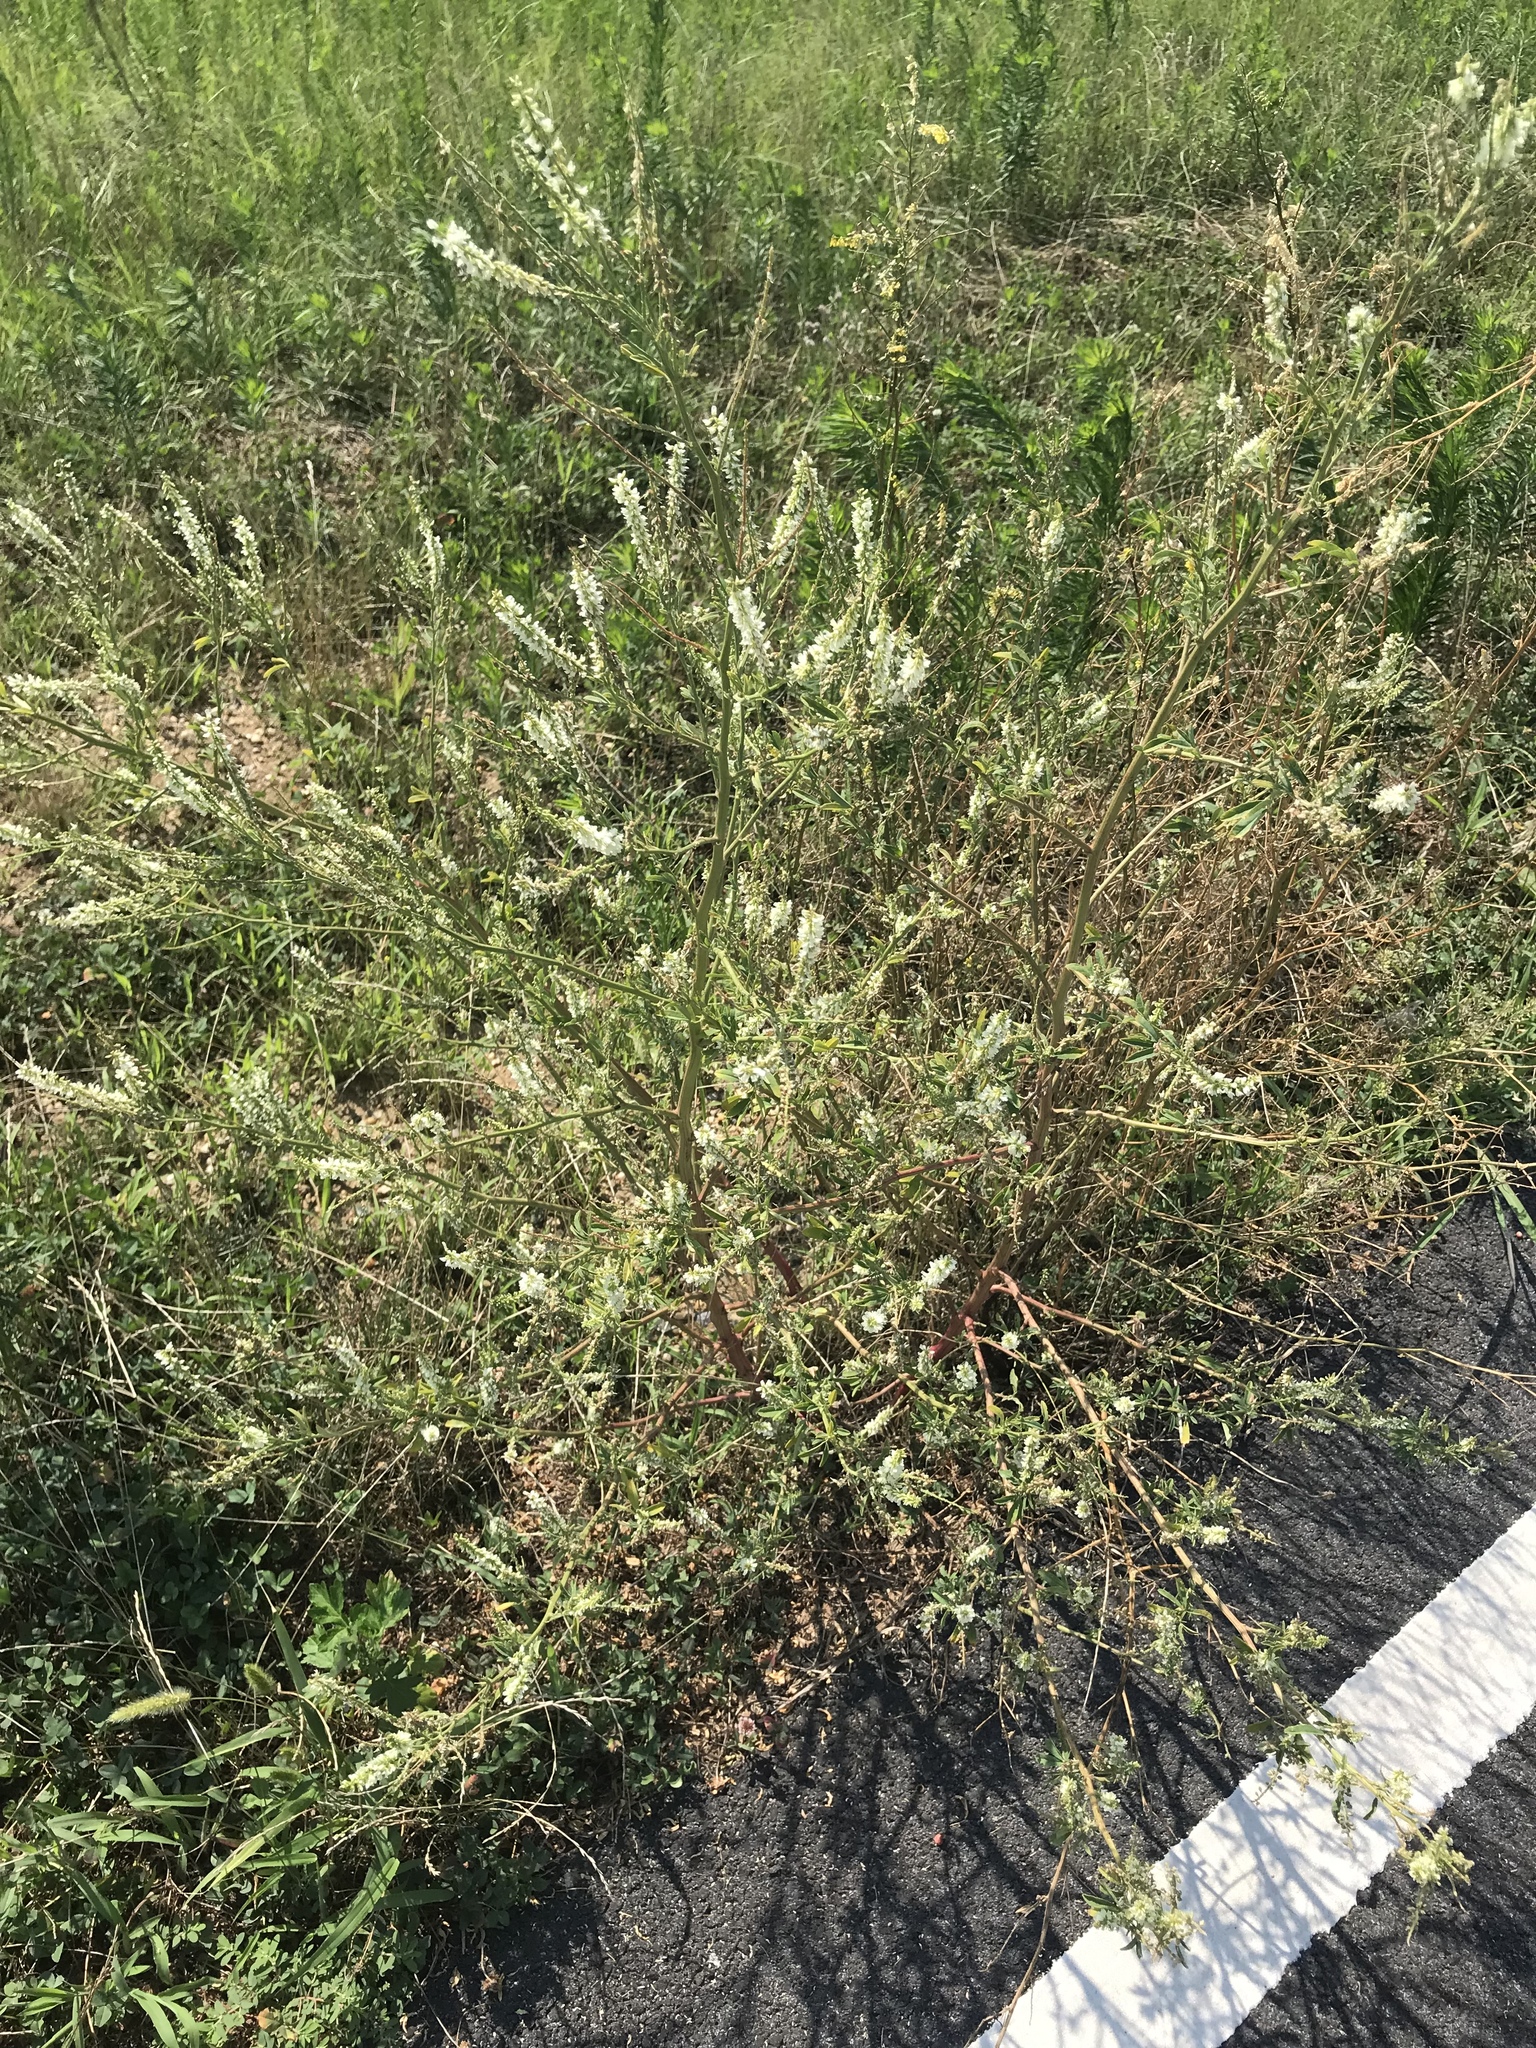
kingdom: Plantae
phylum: Tracheophyta
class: Magnoliopsida
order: Fabales
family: Fabaceae
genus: Melilotus
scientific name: Melilotus albus
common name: White melilot
